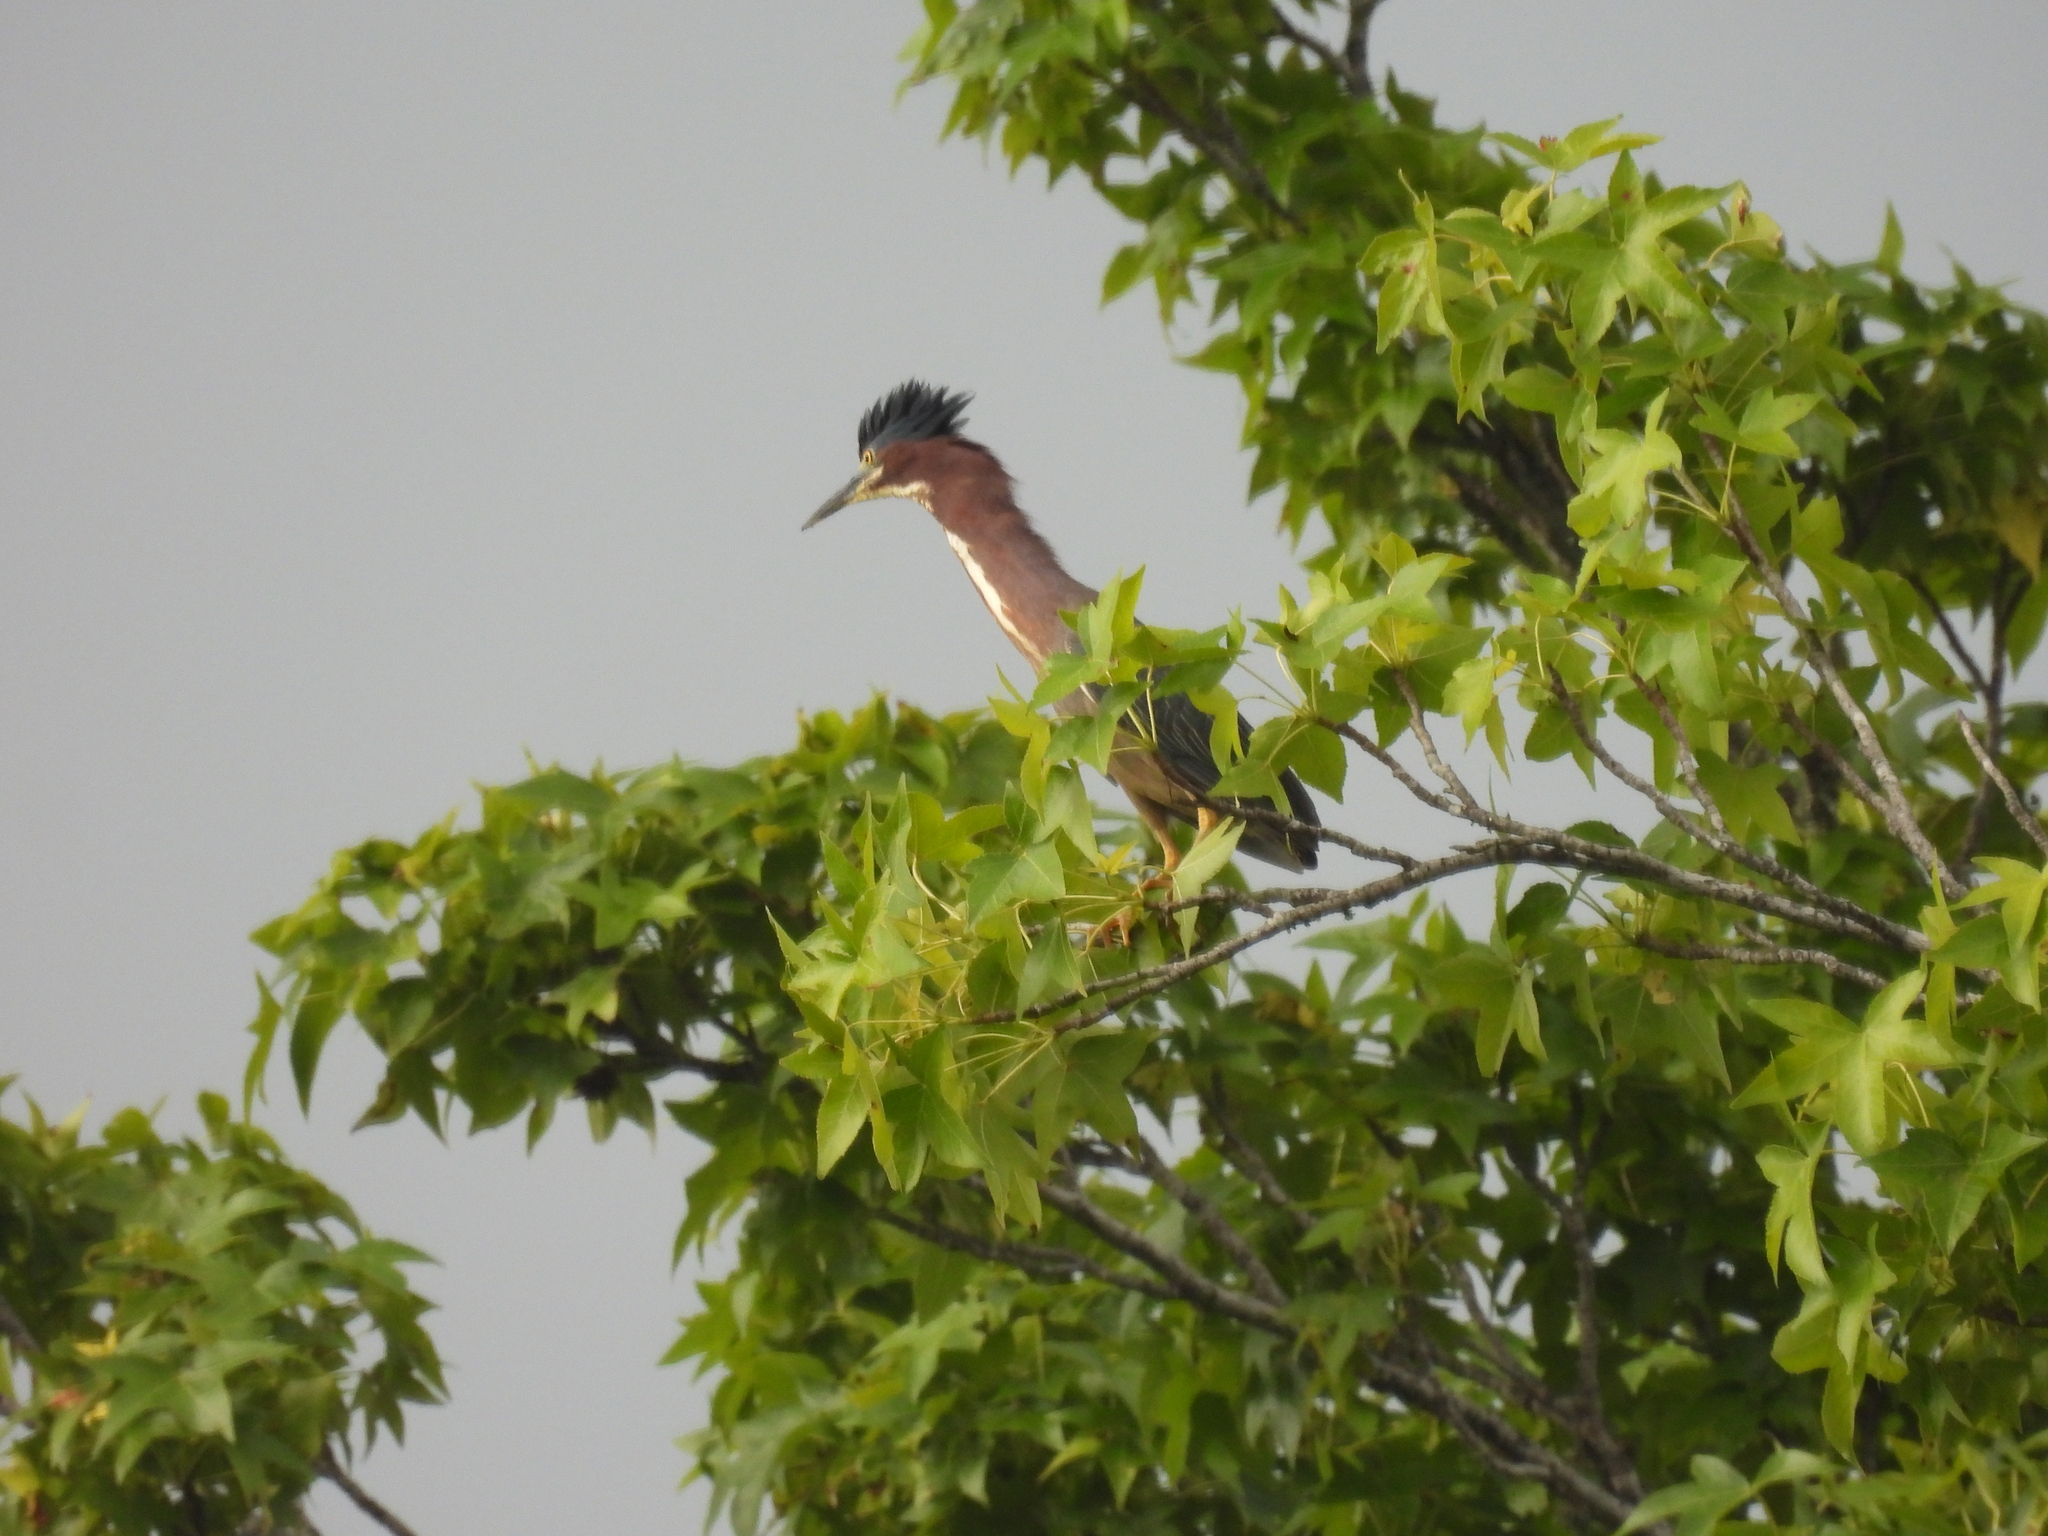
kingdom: Animalia
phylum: Chordata
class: Aves
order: Pelecaniformes
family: Ardeidae
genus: Butorides
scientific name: Butorides virescens
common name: Green heron
